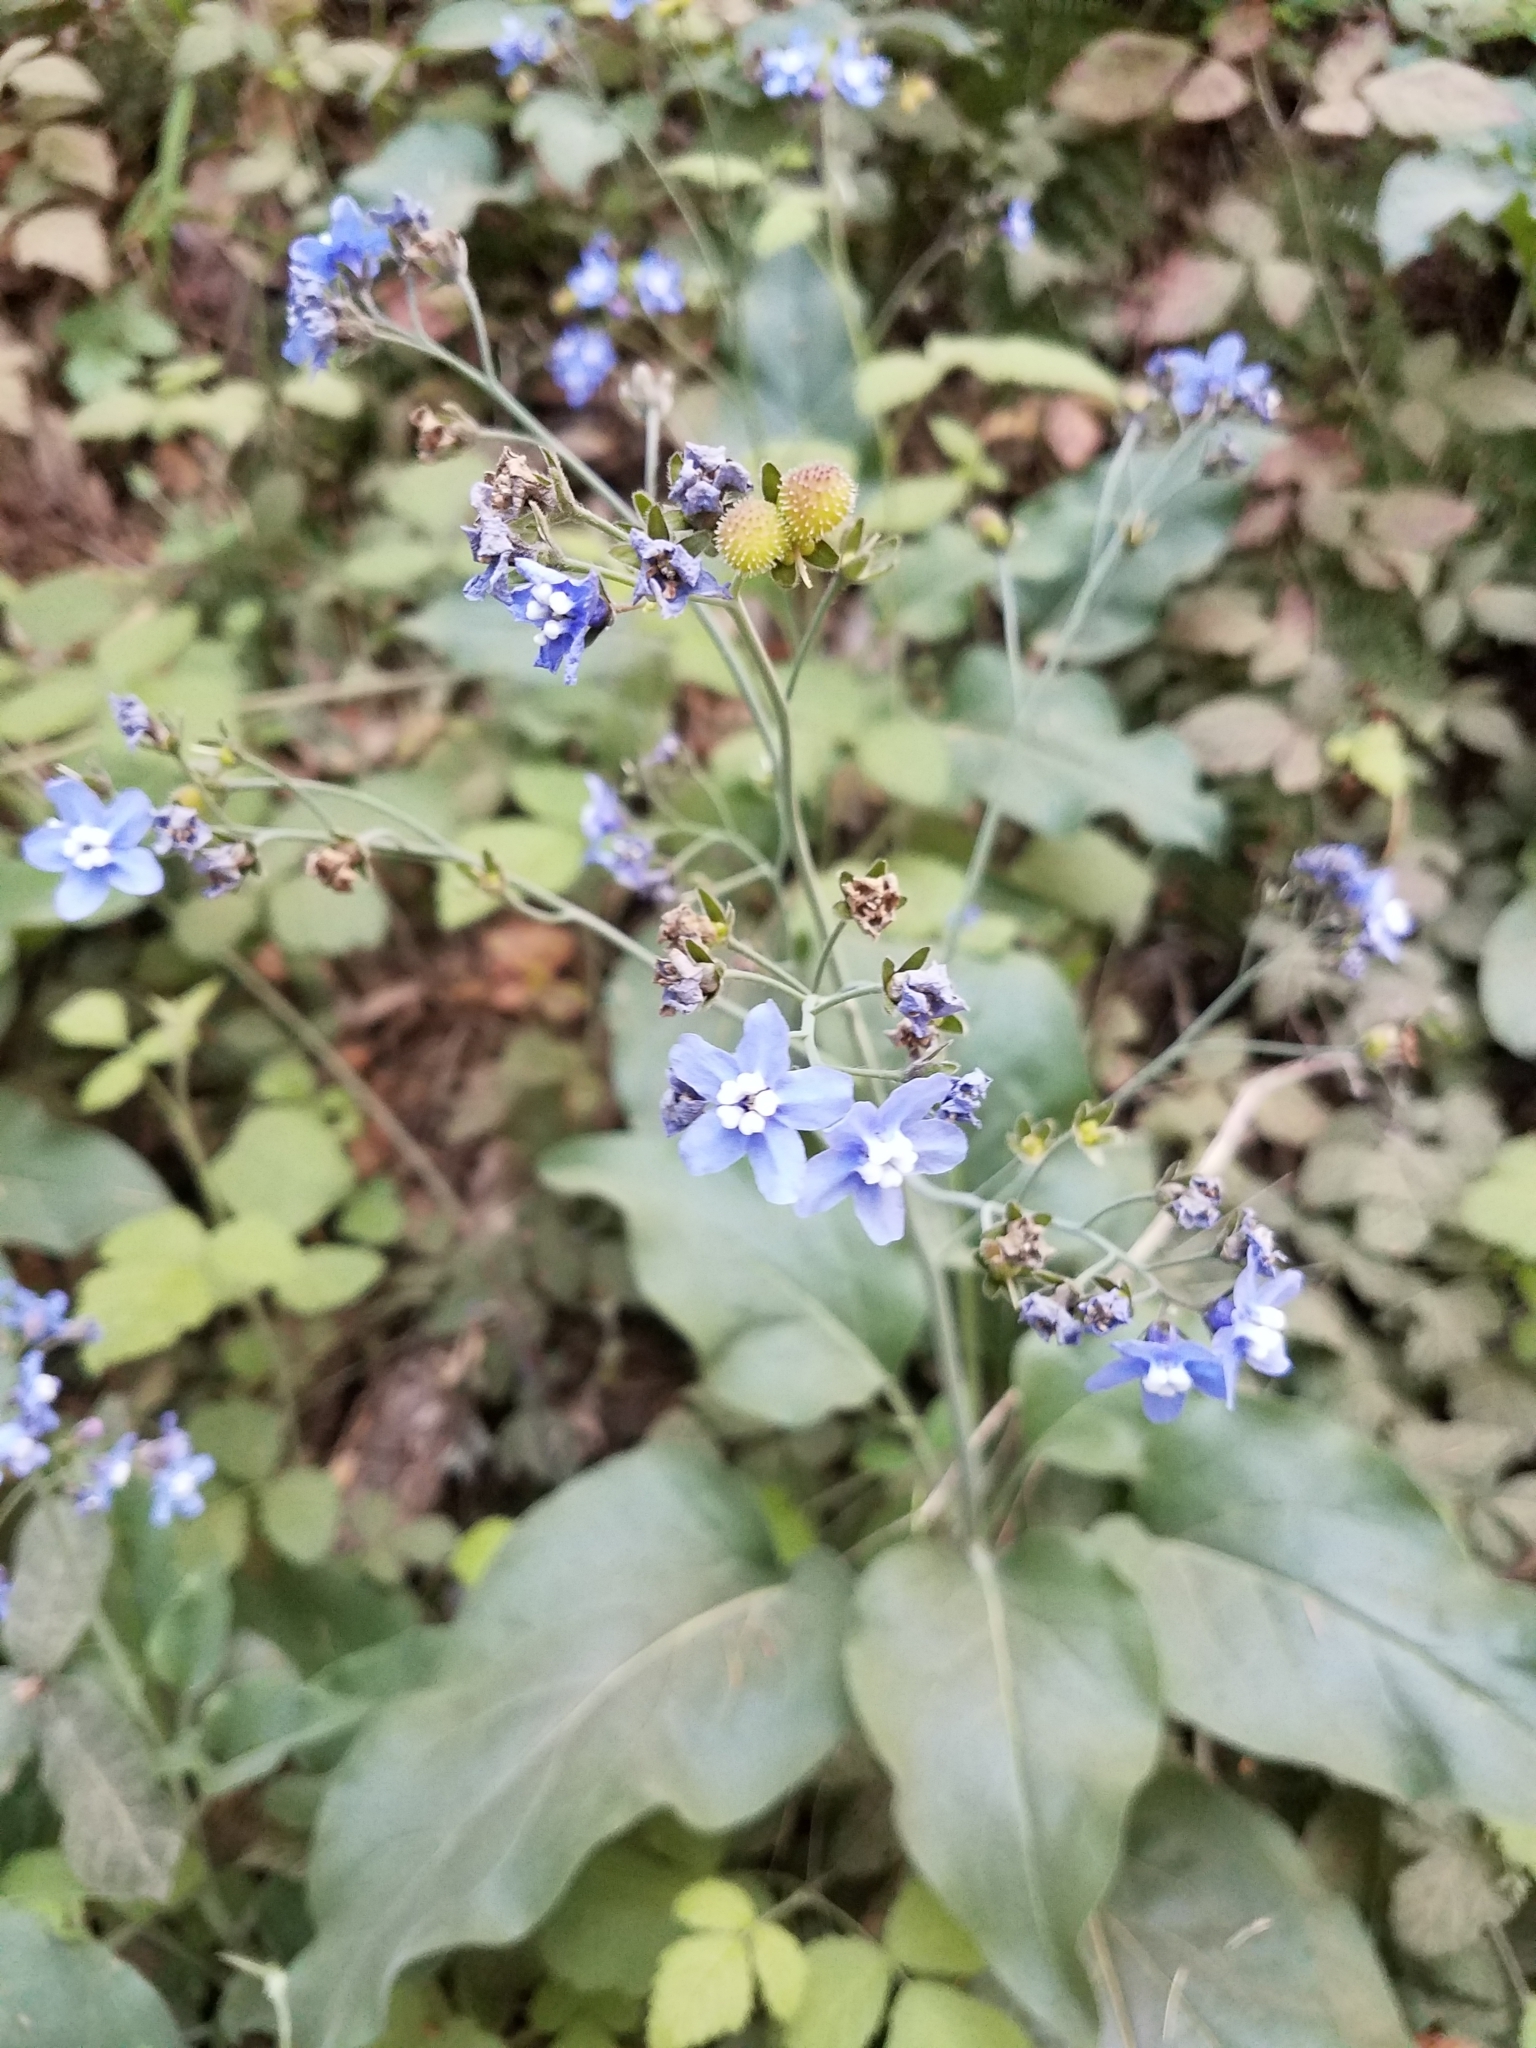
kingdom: Plantae
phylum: Tracheophyta
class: Magnoliopsida
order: Boraginales
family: Boraginaceae
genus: Adelinia
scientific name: Adelinia grande
